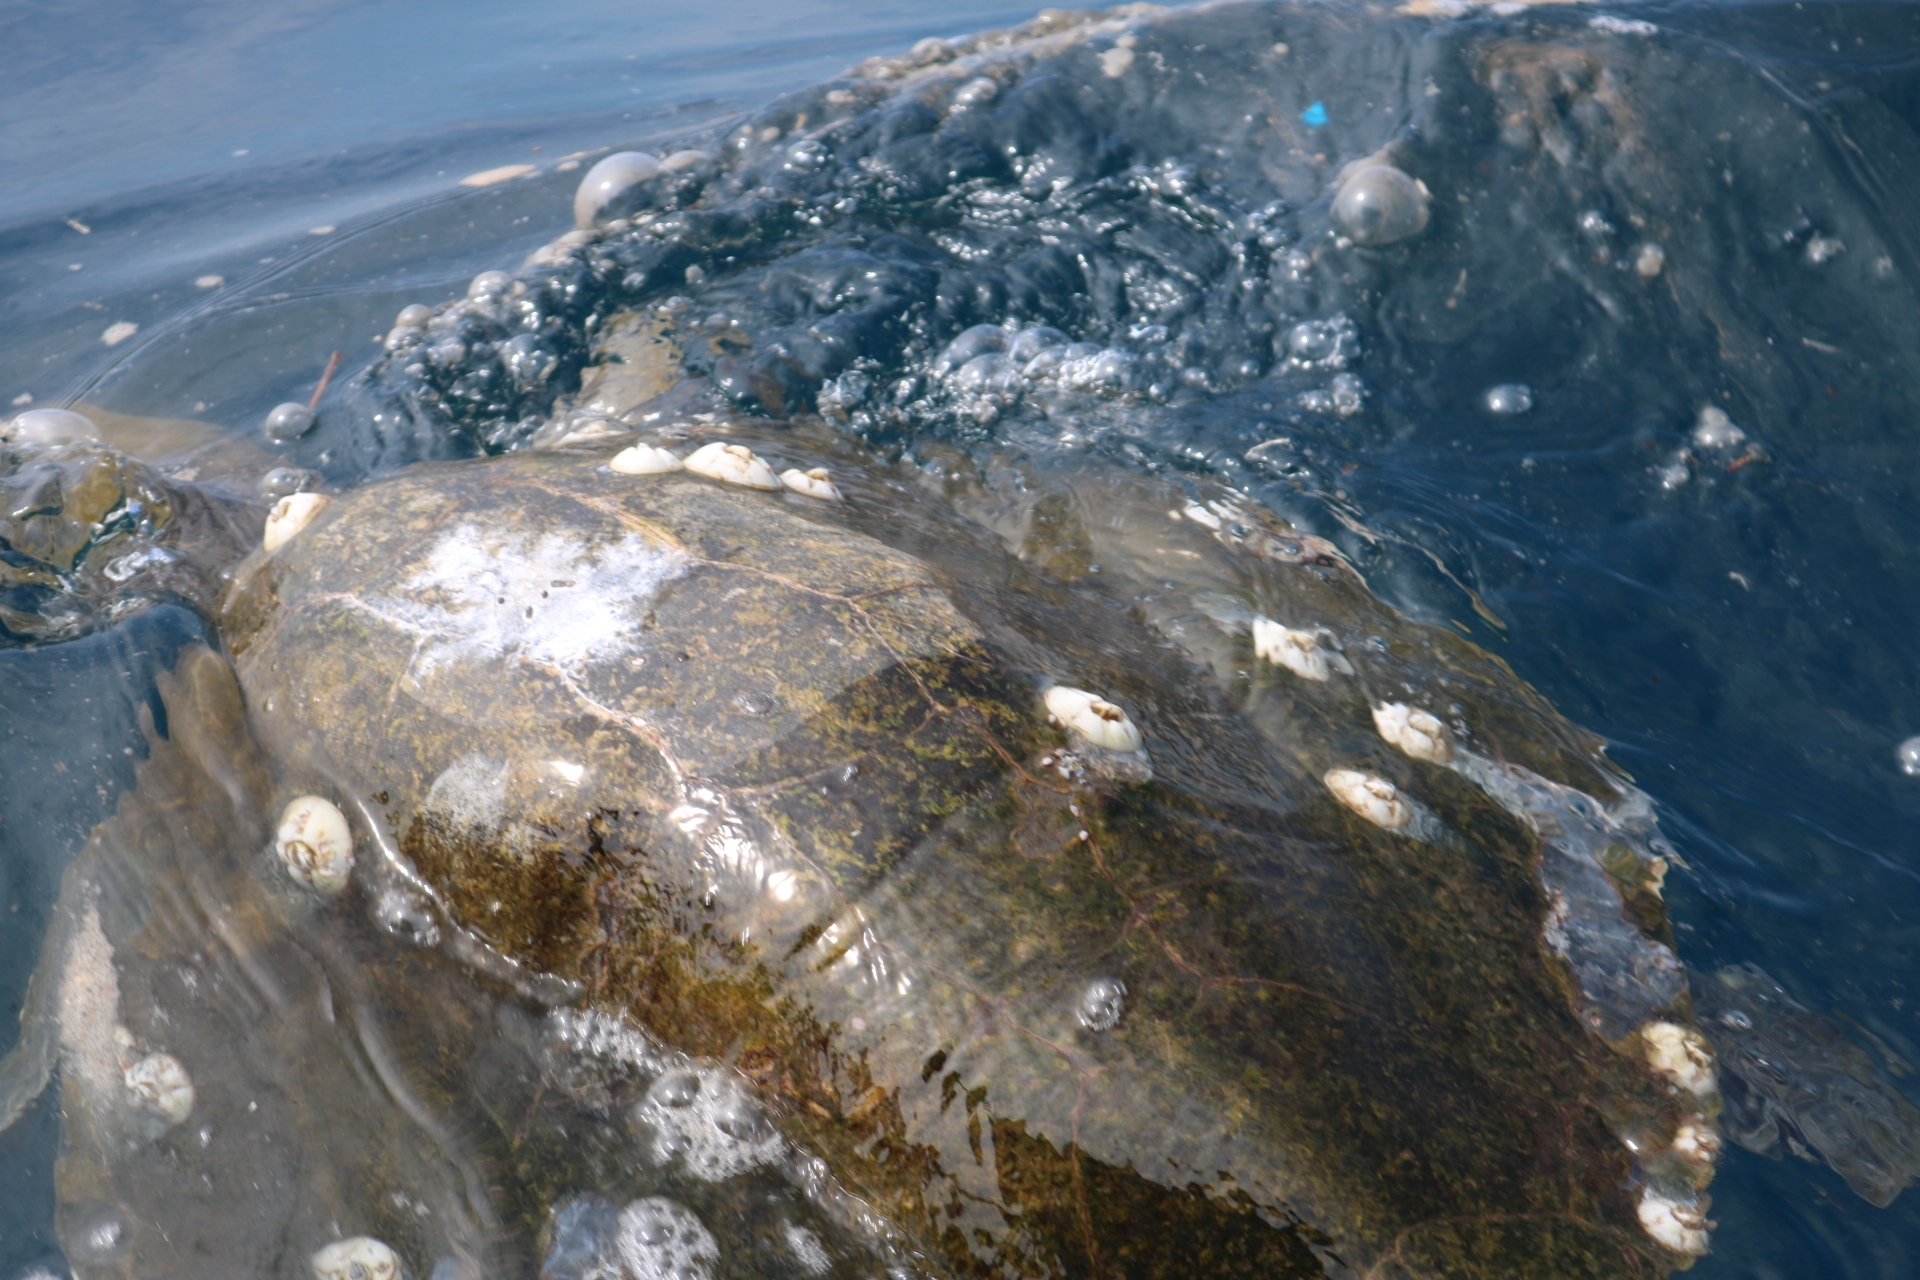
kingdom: Animalia
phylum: Chordata
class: Testudines
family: Cheloniidae
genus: Lepidochelys
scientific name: Lepidochelys olivacea
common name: Olive ridley
